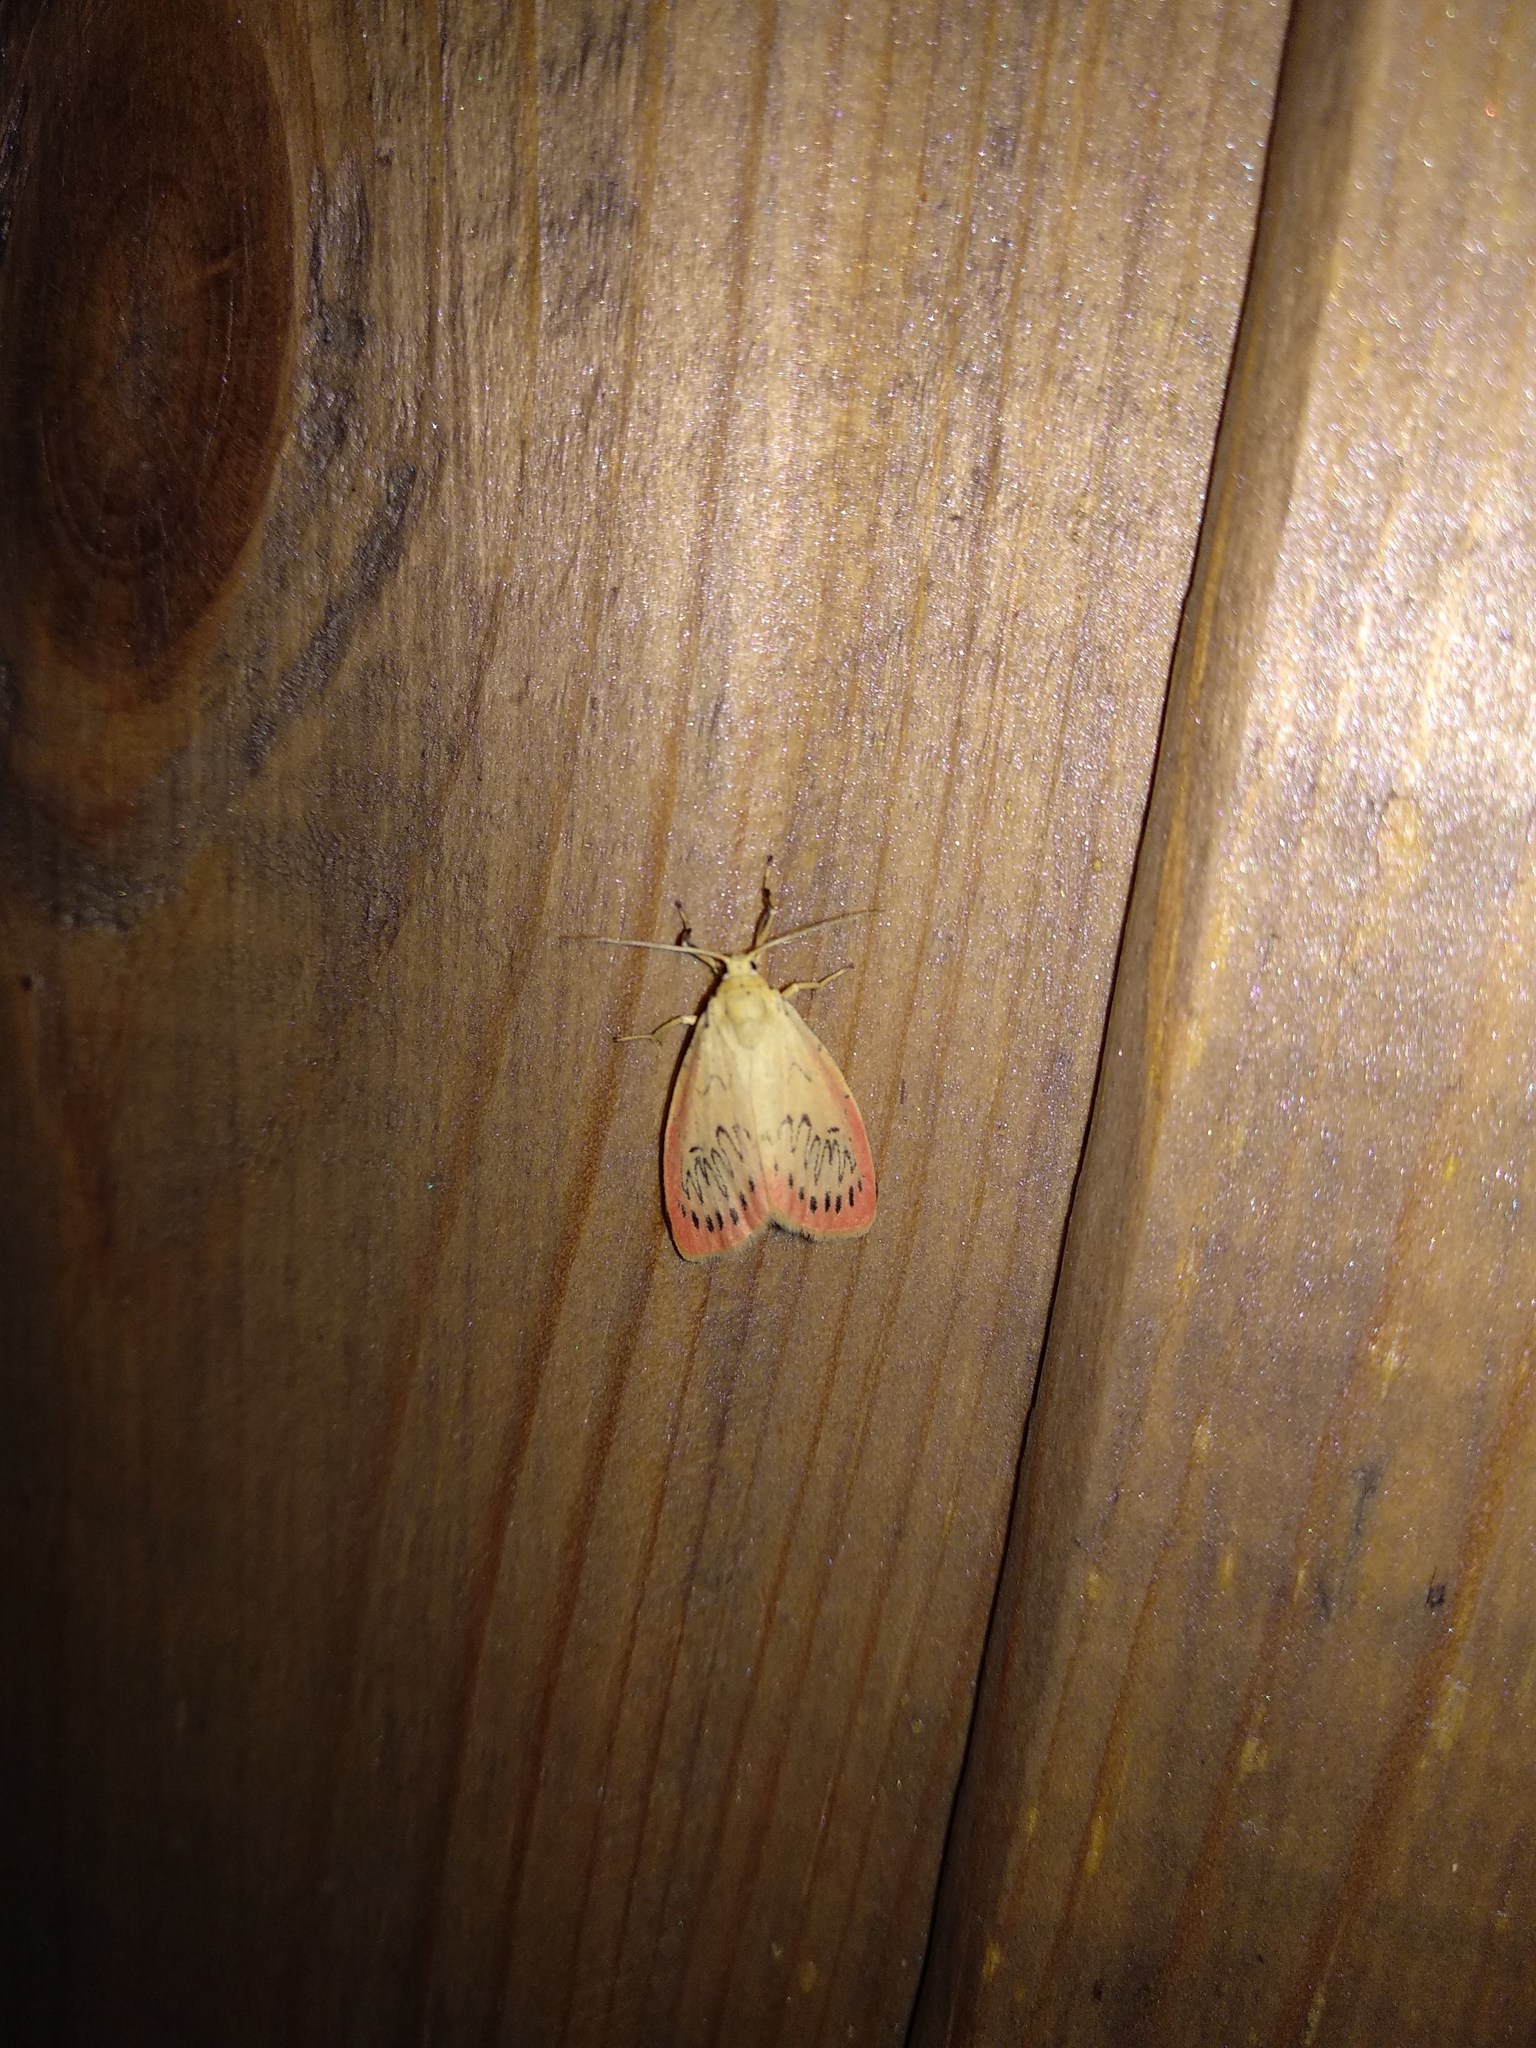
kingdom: Animalia
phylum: Arthropoda
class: Insecta
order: Lepidoptera
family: Erebidae
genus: Miltochrista
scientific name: Miltochrista miniata
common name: Rosy footman
